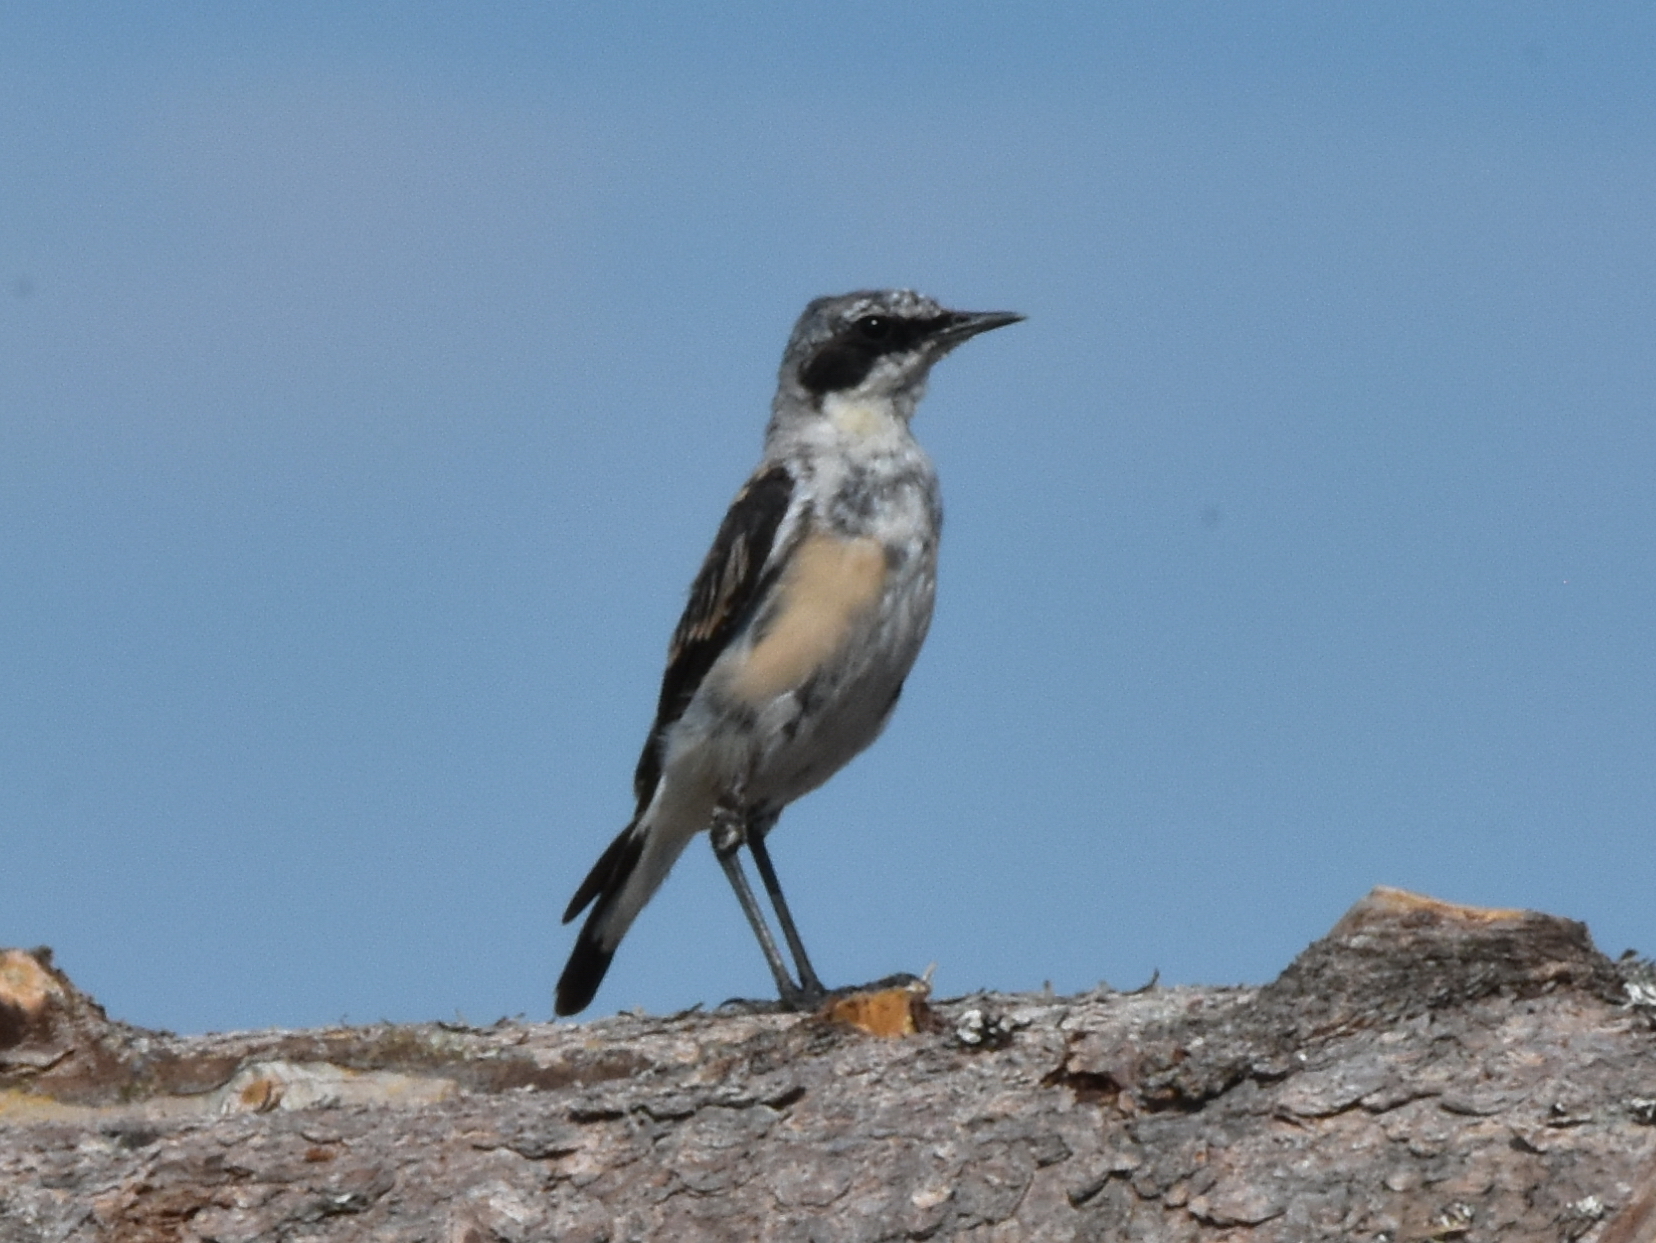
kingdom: Animalia
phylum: Chordata
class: Aves
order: Passeriformes
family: Muscicapidae
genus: Oenanthe
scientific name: Oenanthe oenanthe
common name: Northern wheatear
